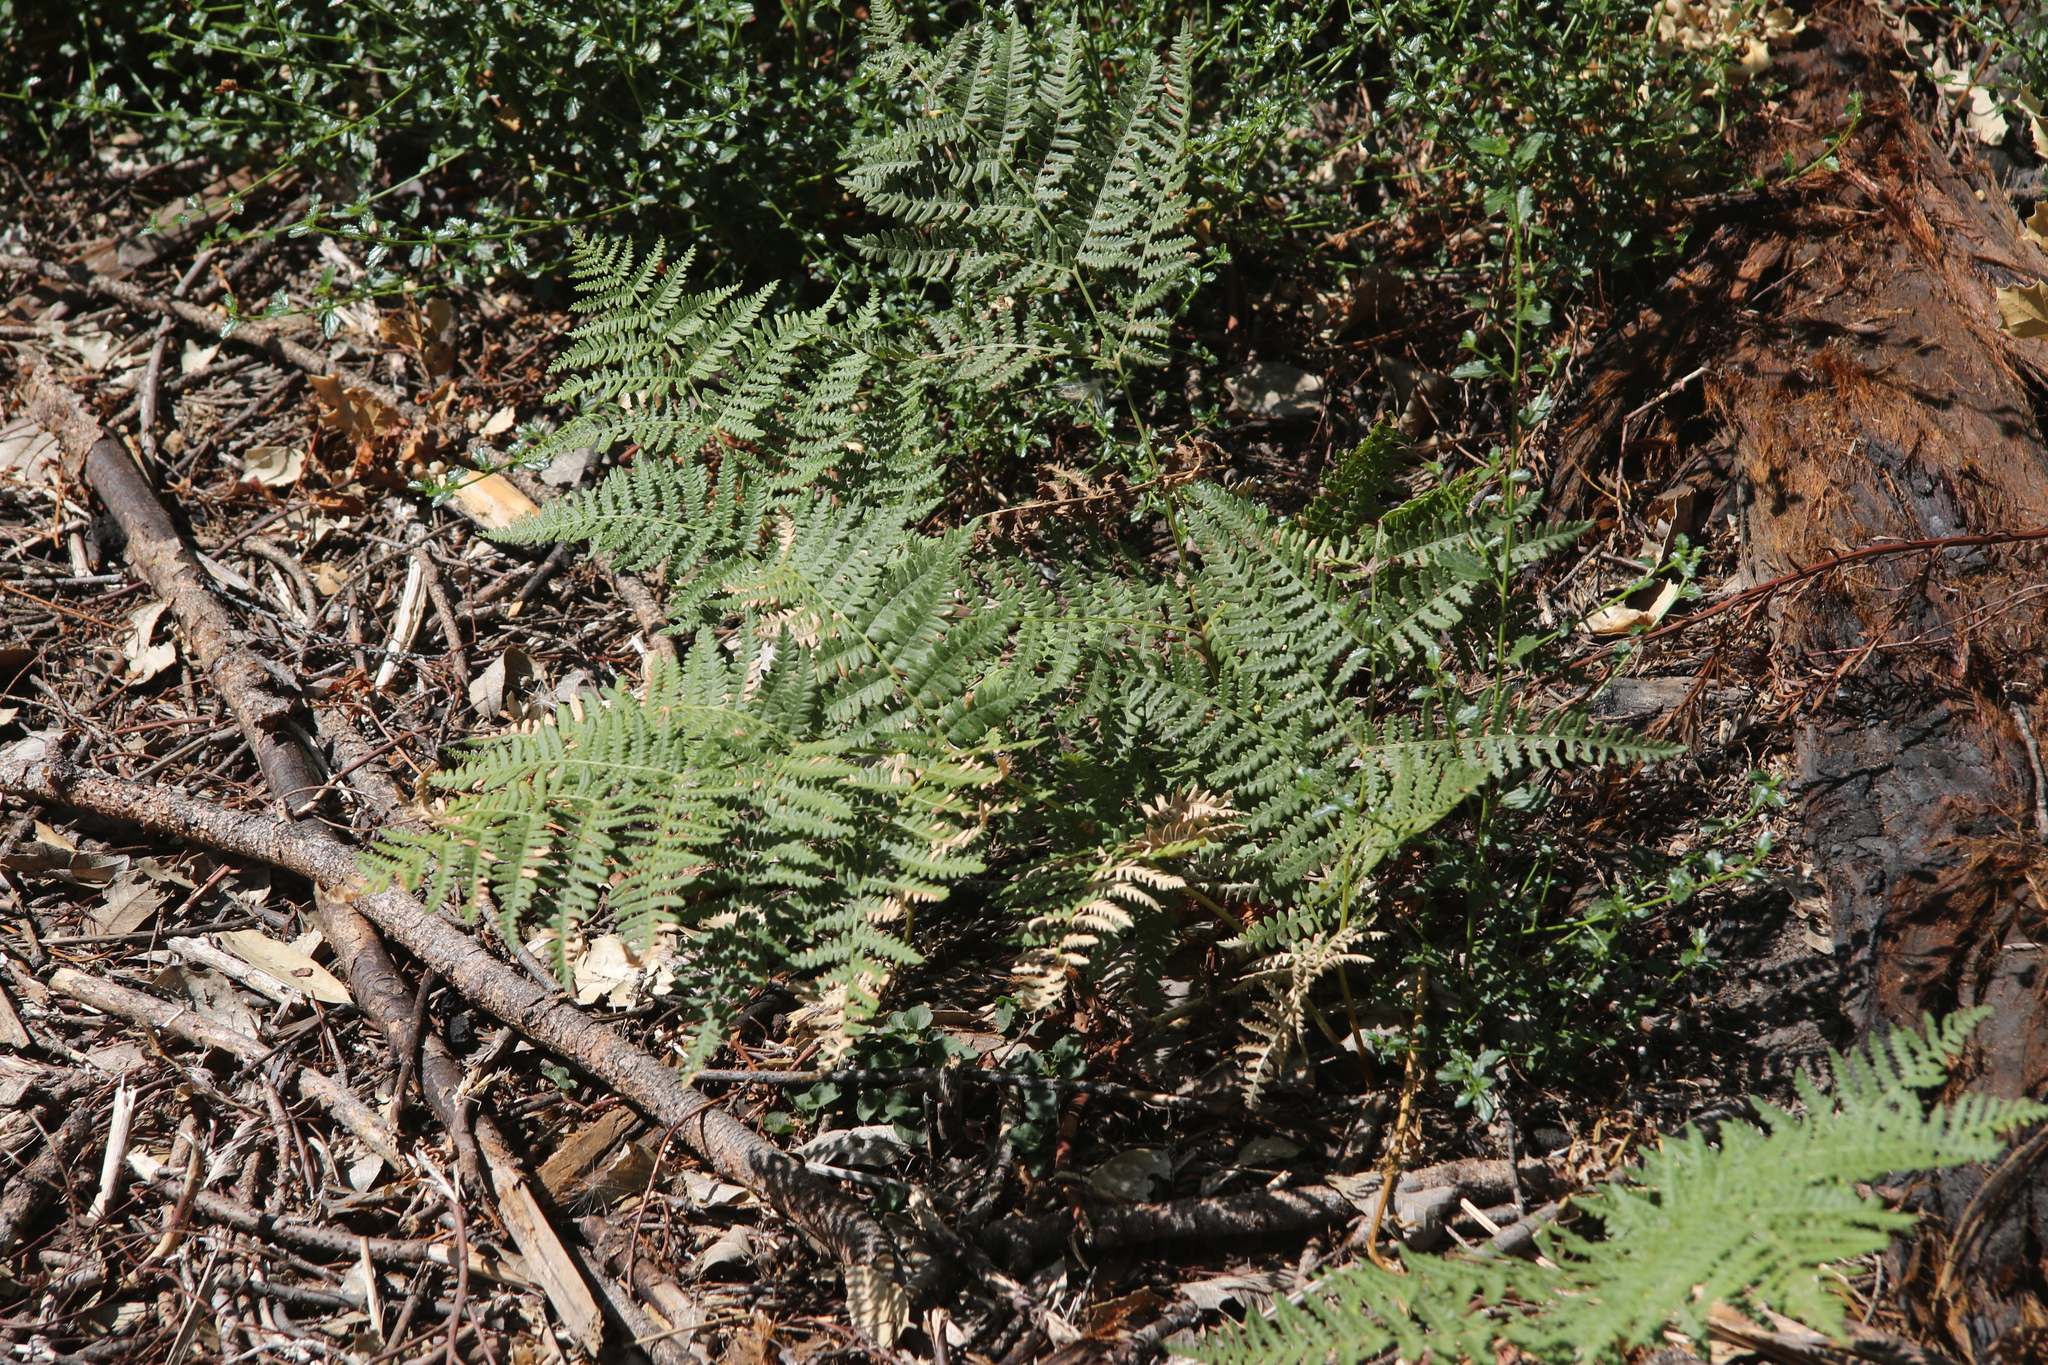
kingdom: Plantae
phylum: Tracheophyta
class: Polypodiopsida
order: Polypodiales
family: Dennstaedtiaceae
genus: Pteridium
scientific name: Pteridium aquilinum
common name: Bracken
